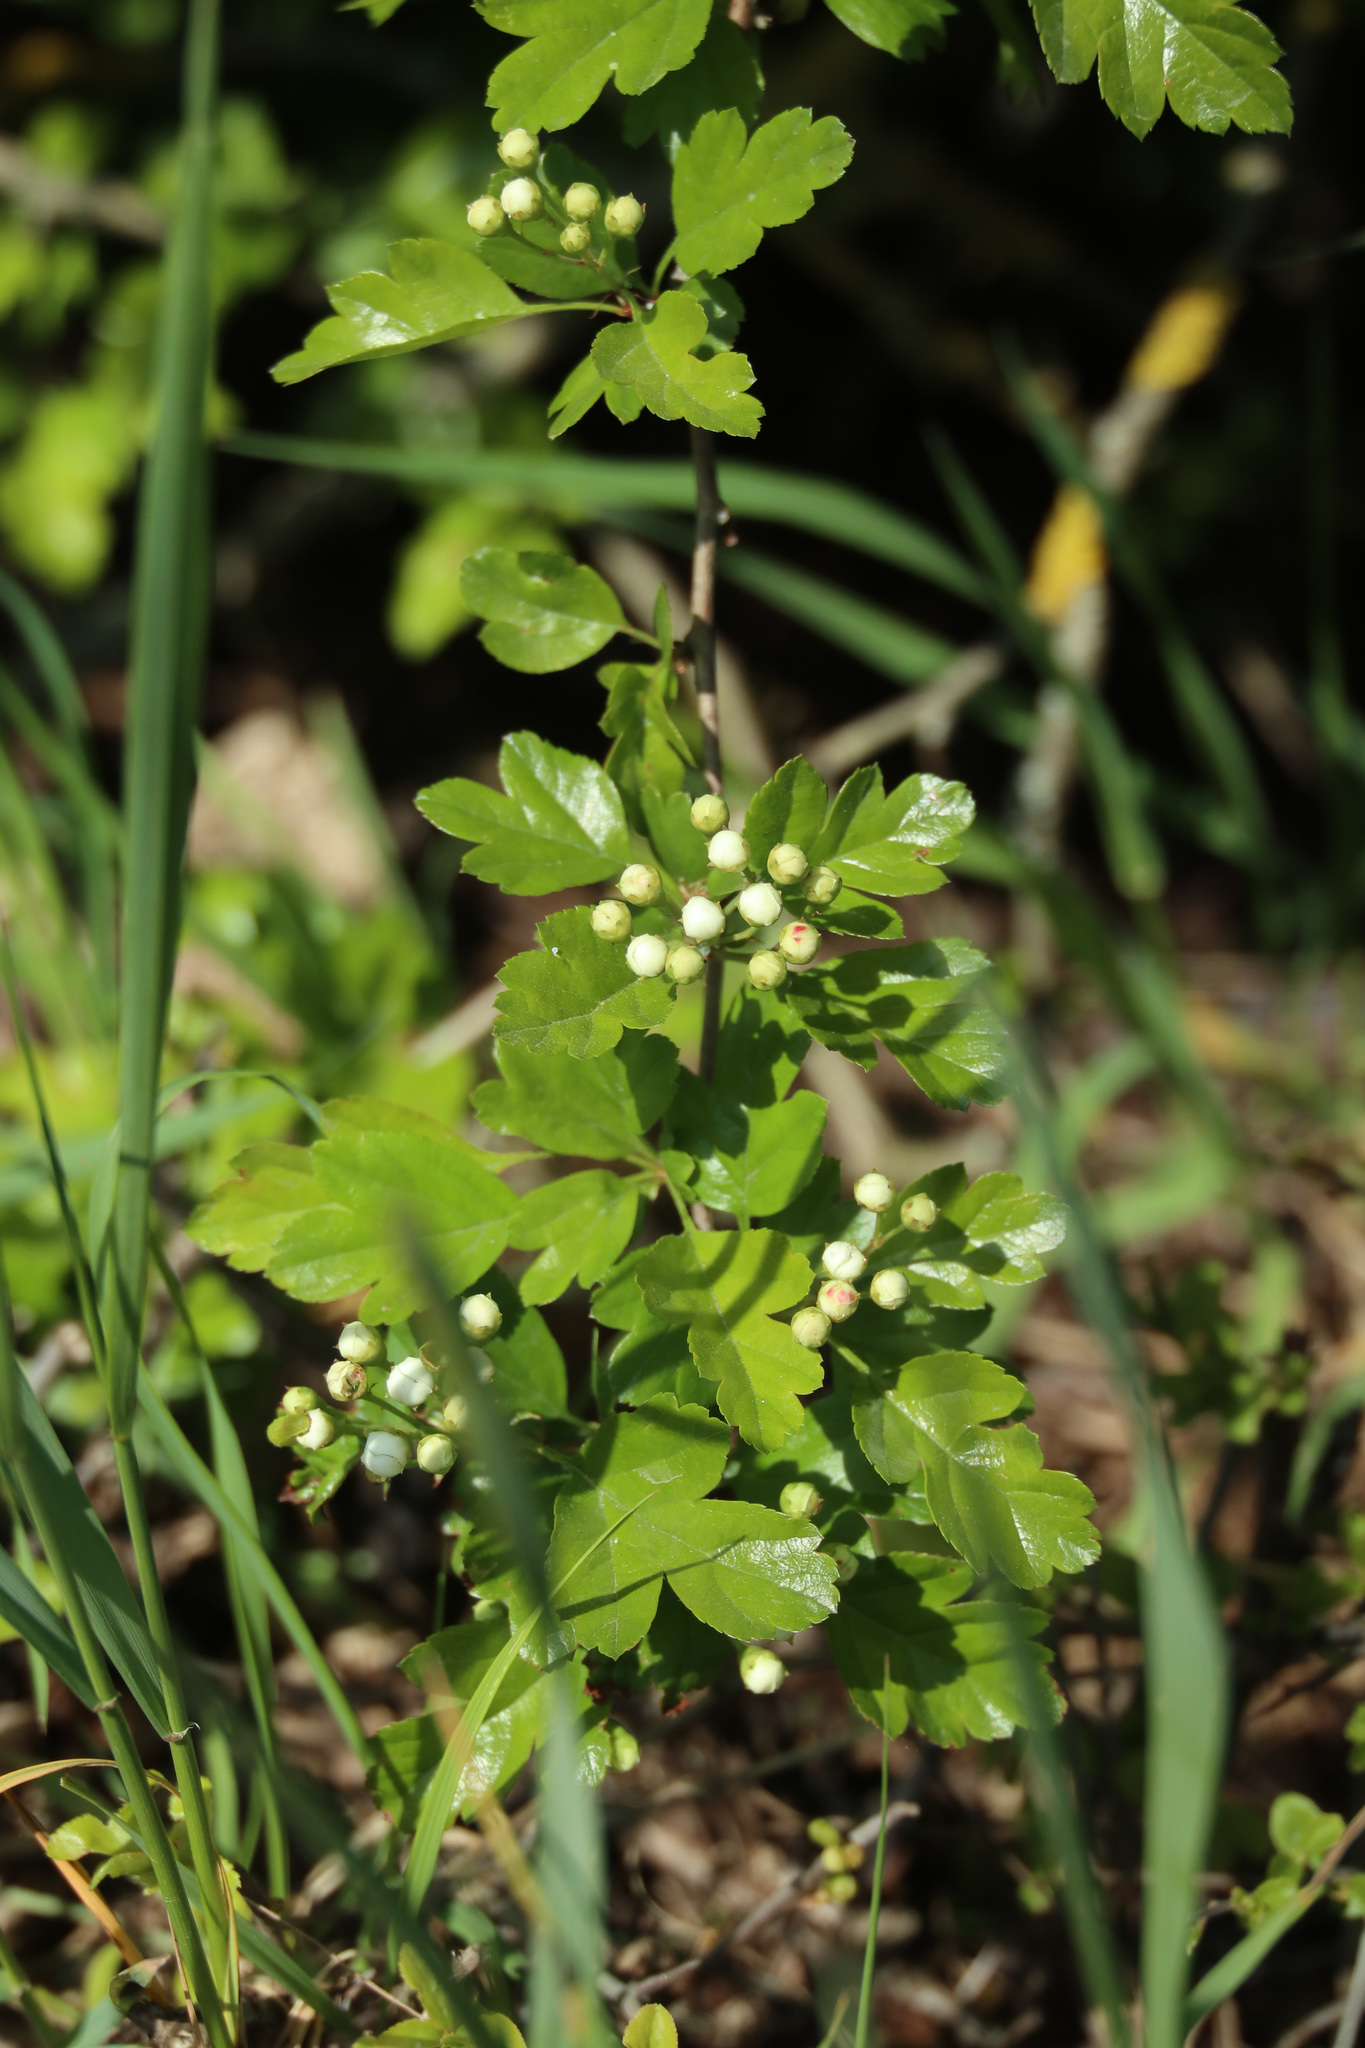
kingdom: Plantae
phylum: Tracheophyta
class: Magnoliopsida
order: Rosales
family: Rosaceae
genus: Crataegus
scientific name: Crataegus laevigata
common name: Midland hawthorn
